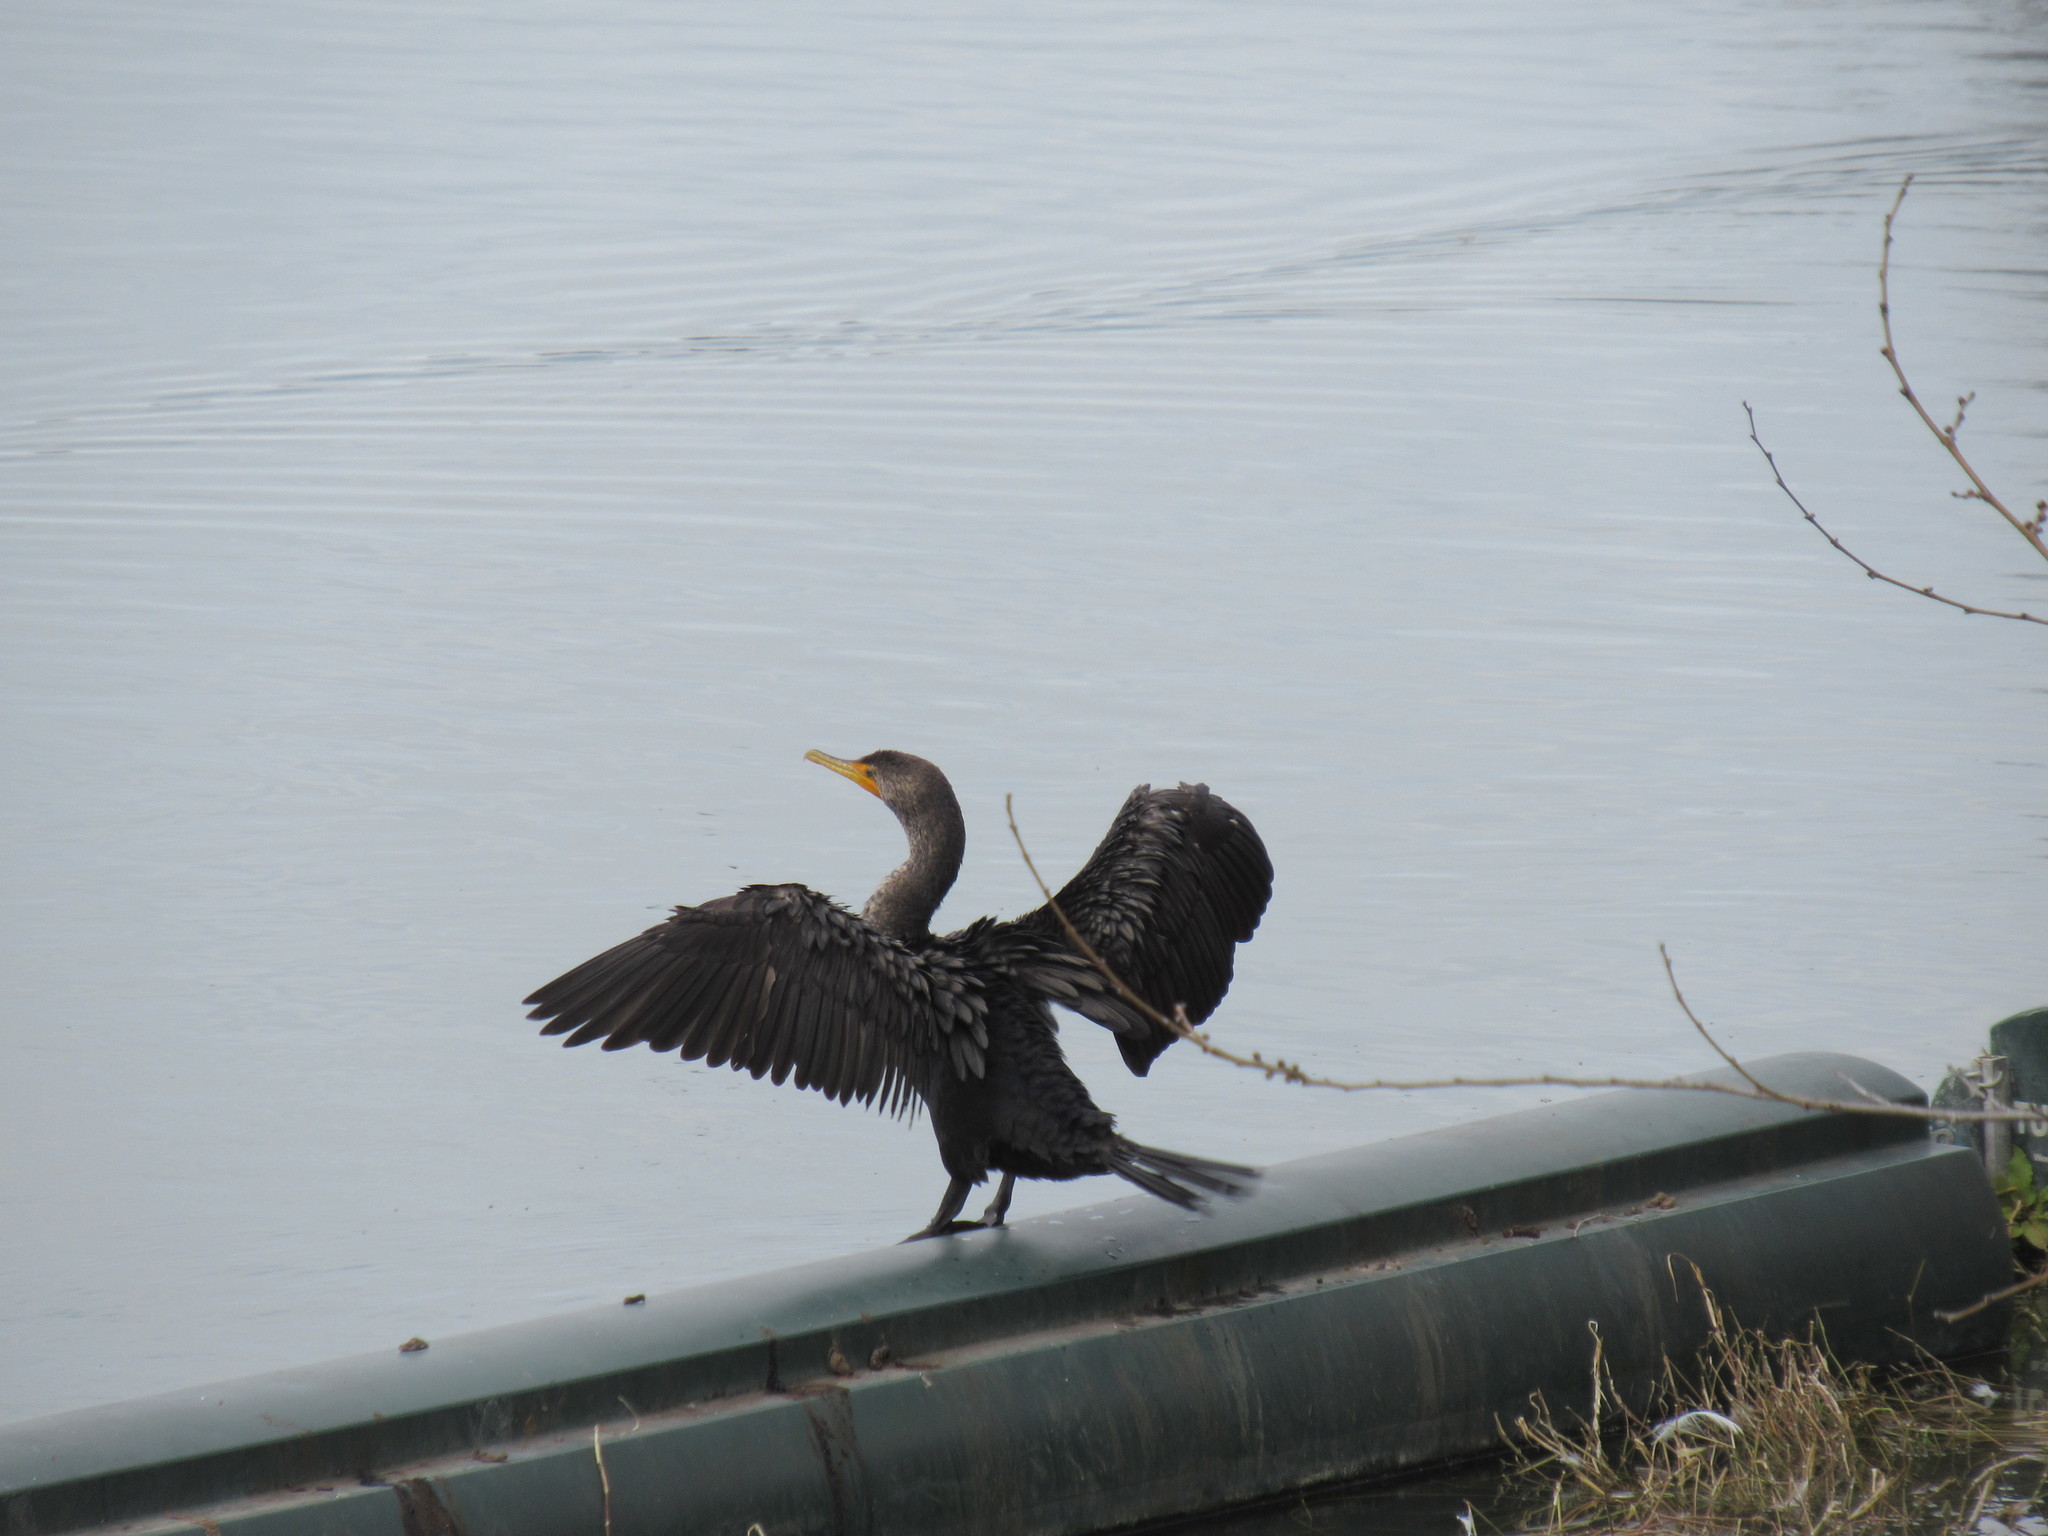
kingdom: Animalia
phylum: Chordata
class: Aves
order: Suliformes
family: Phalacrocoracidae
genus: Phalacrocorax
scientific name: Phalacrocorax auritus
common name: Double-crested cormorant
